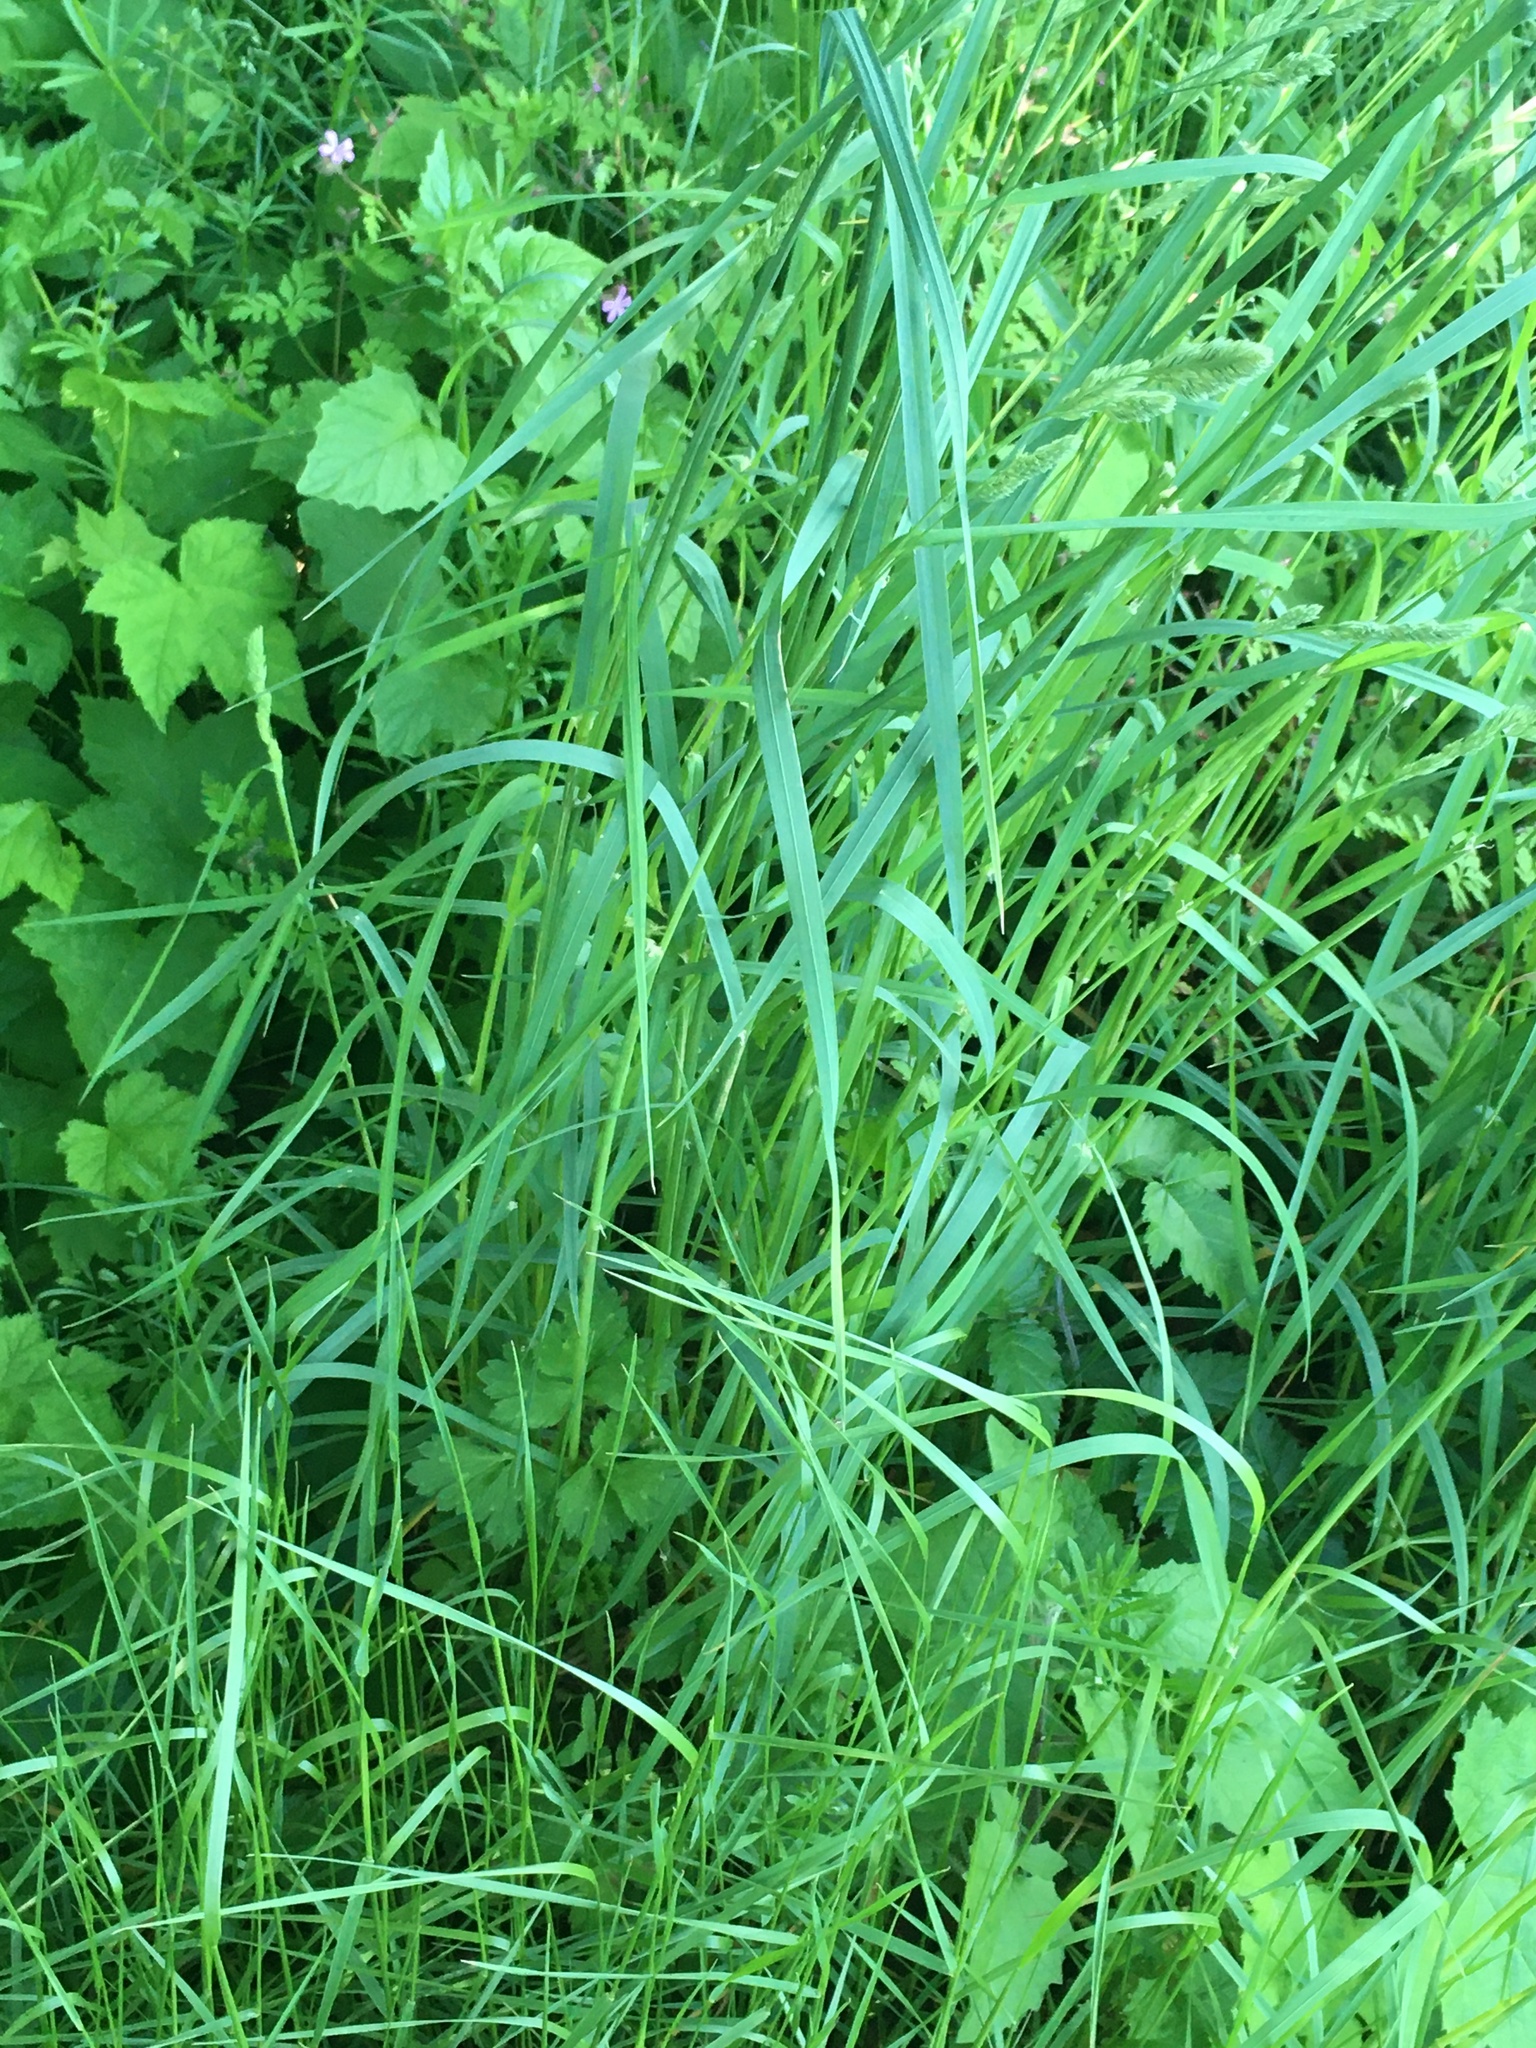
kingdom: Plantae
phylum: Tracheophyta
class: Liliopsida
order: Poales
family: Poaceae
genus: Dactylis
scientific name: Dactylis glomerata
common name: Orchardgrass
